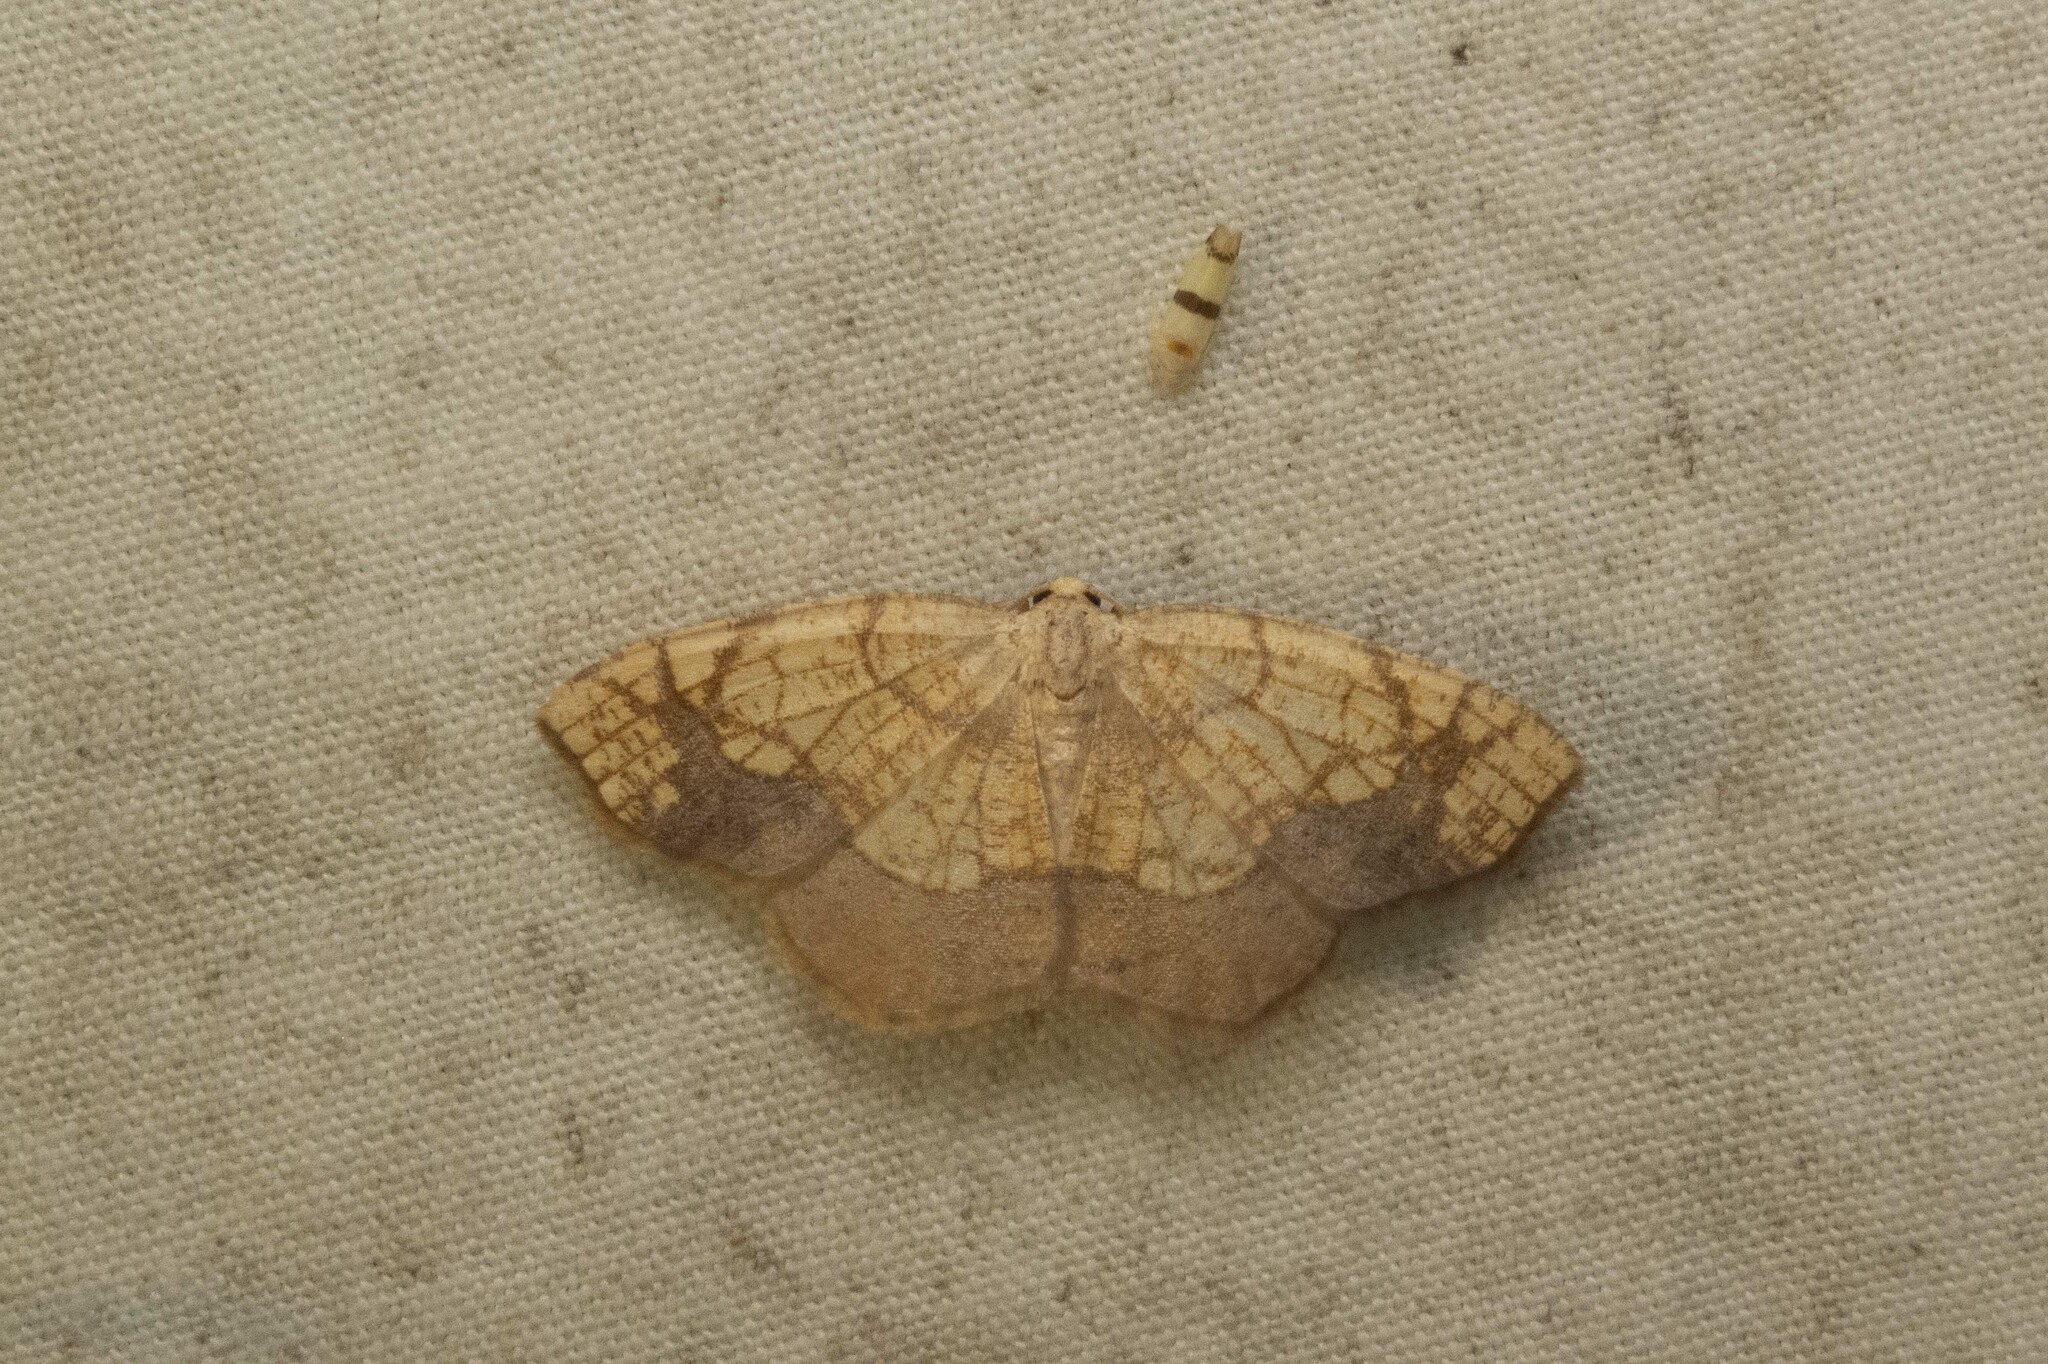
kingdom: Animalia
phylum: Arthropoda
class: Insecta
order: Lepidoptera
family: Geometridae
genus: Nematocampa
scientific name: Nematocampa resistaria
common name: Horned spanworm moth
